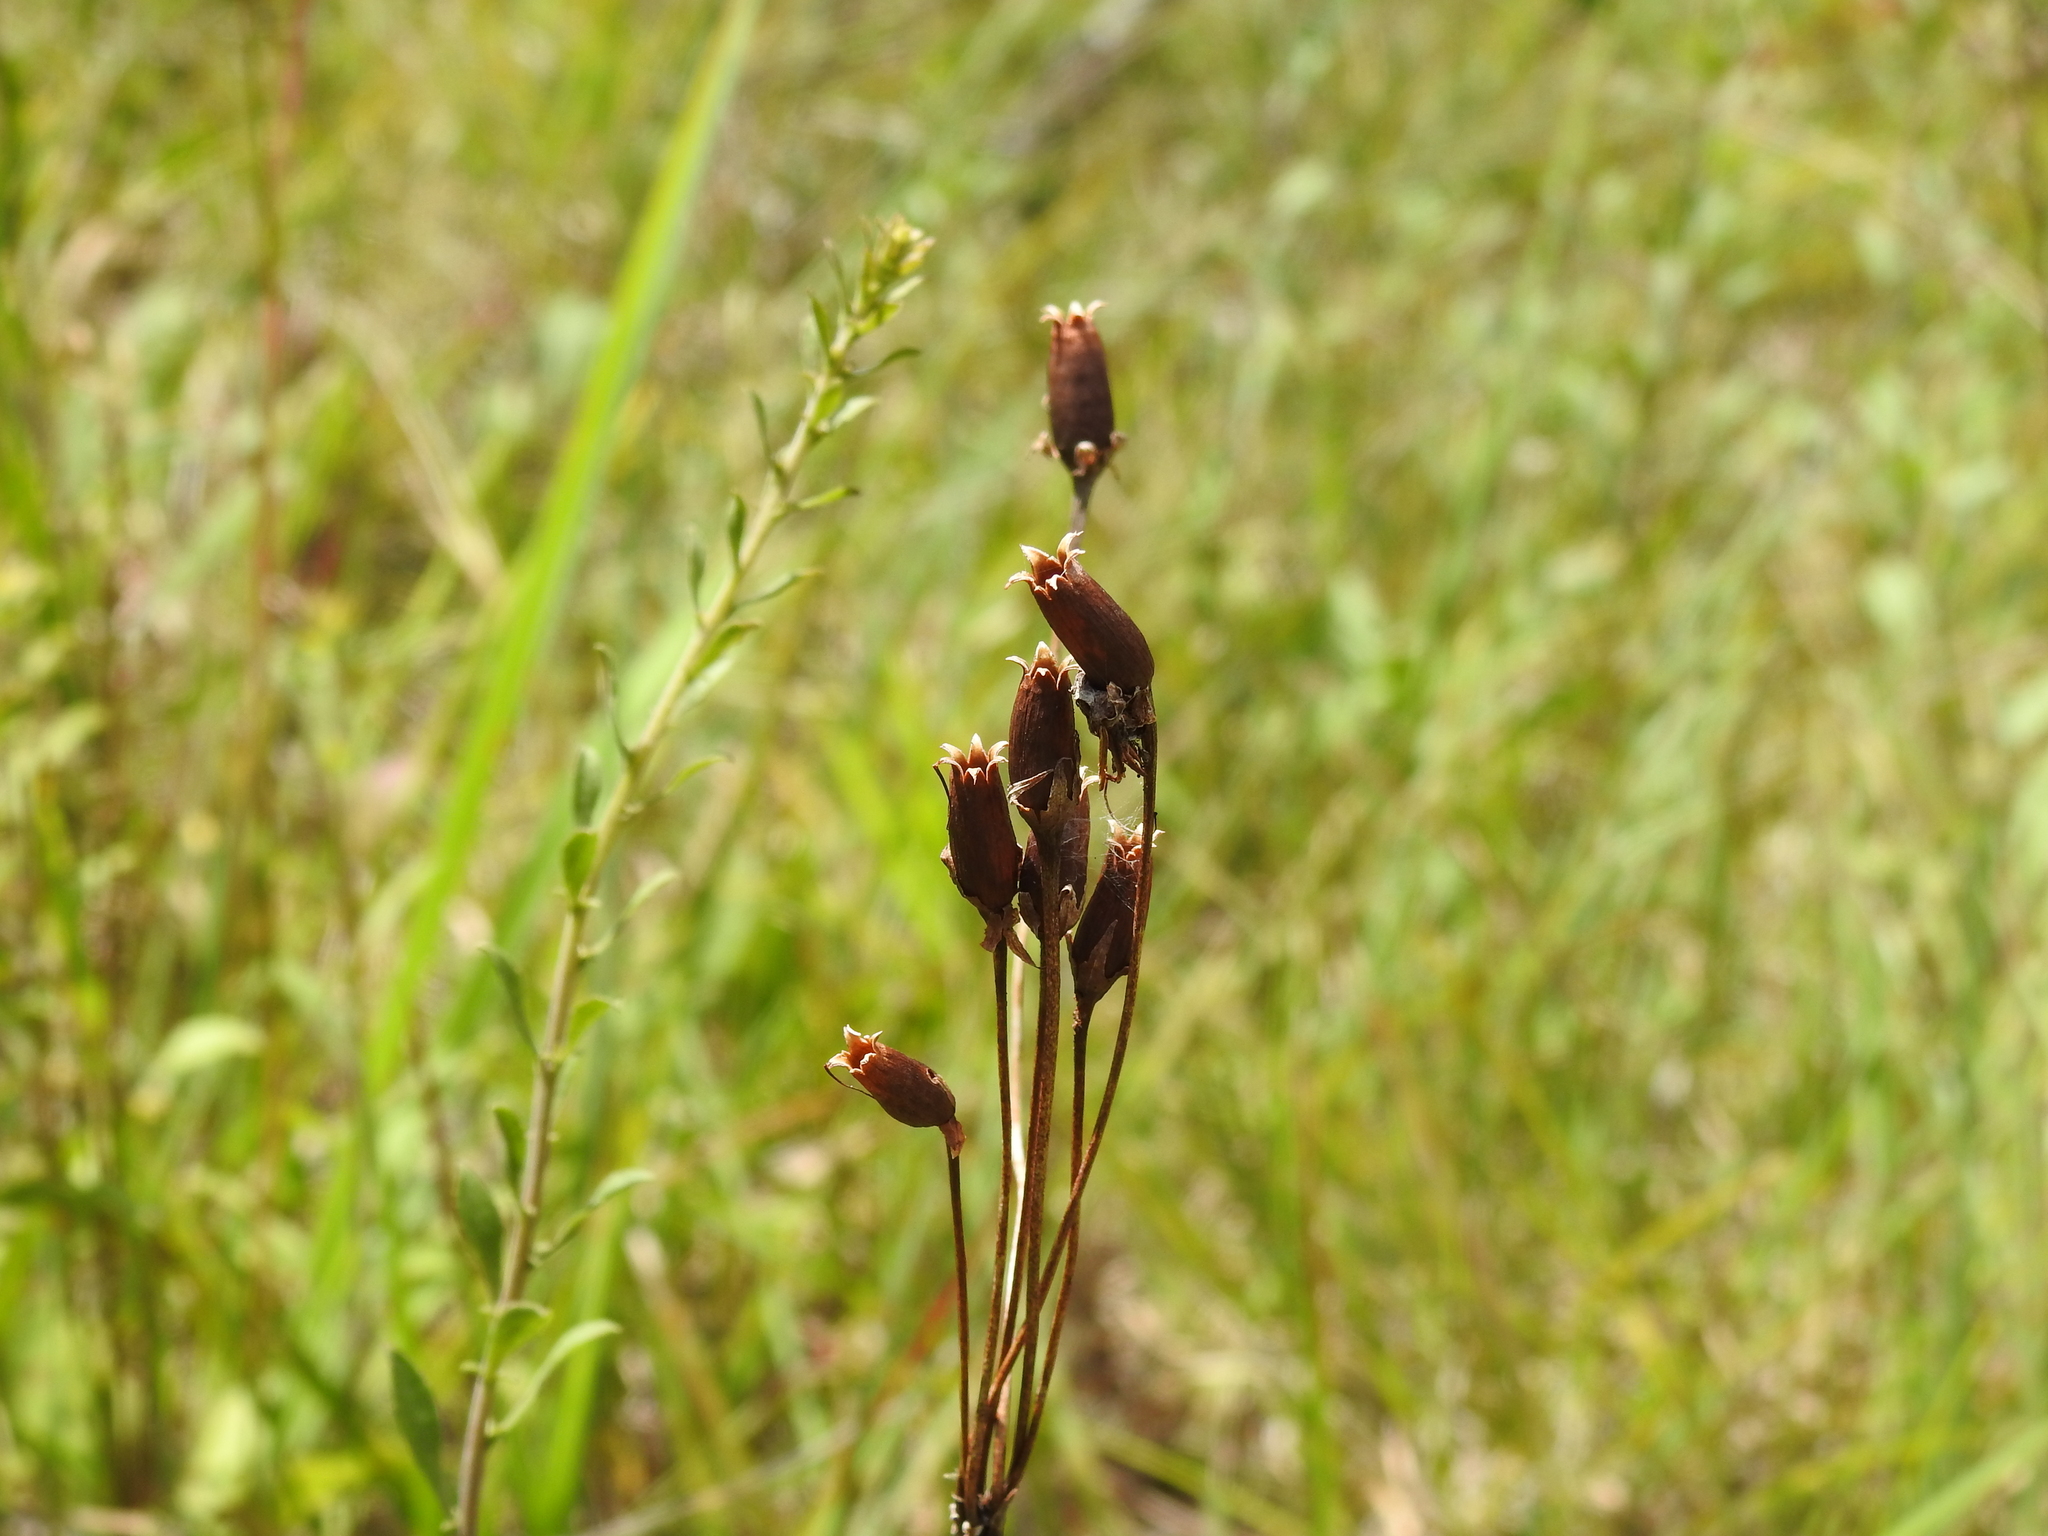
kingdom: Plantae
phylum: Tracheophyta
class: Magnoliopsida
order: Ericales
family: Primulaceae
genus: Dodecatheon
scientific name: Dodecatheon meadia
